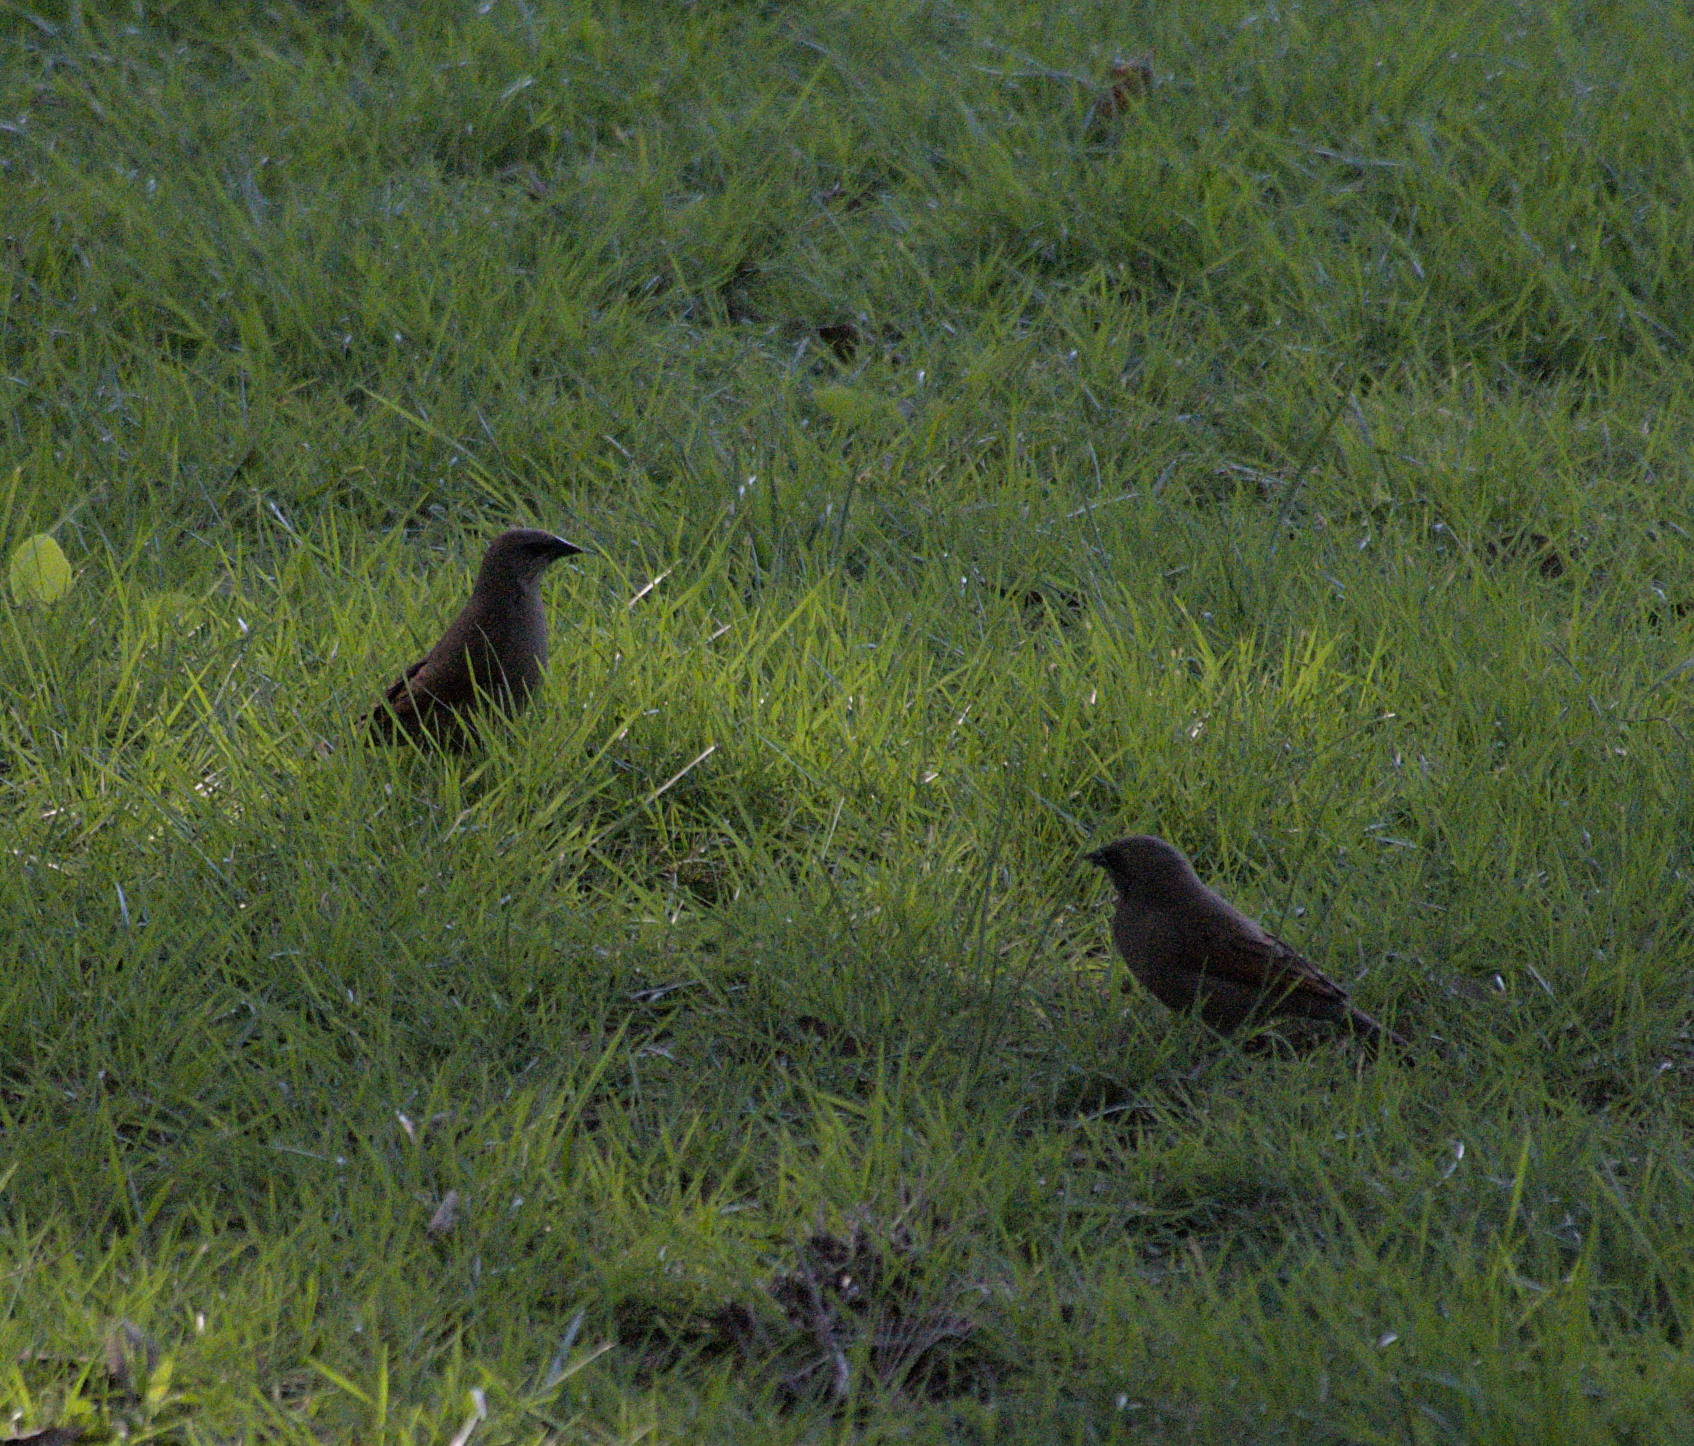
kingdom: Animalia
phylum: Chordata
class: Aves
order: Passeriformes
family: Icteridae
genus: Agelaioides
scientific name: Agelaioides badius
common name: Baywing
